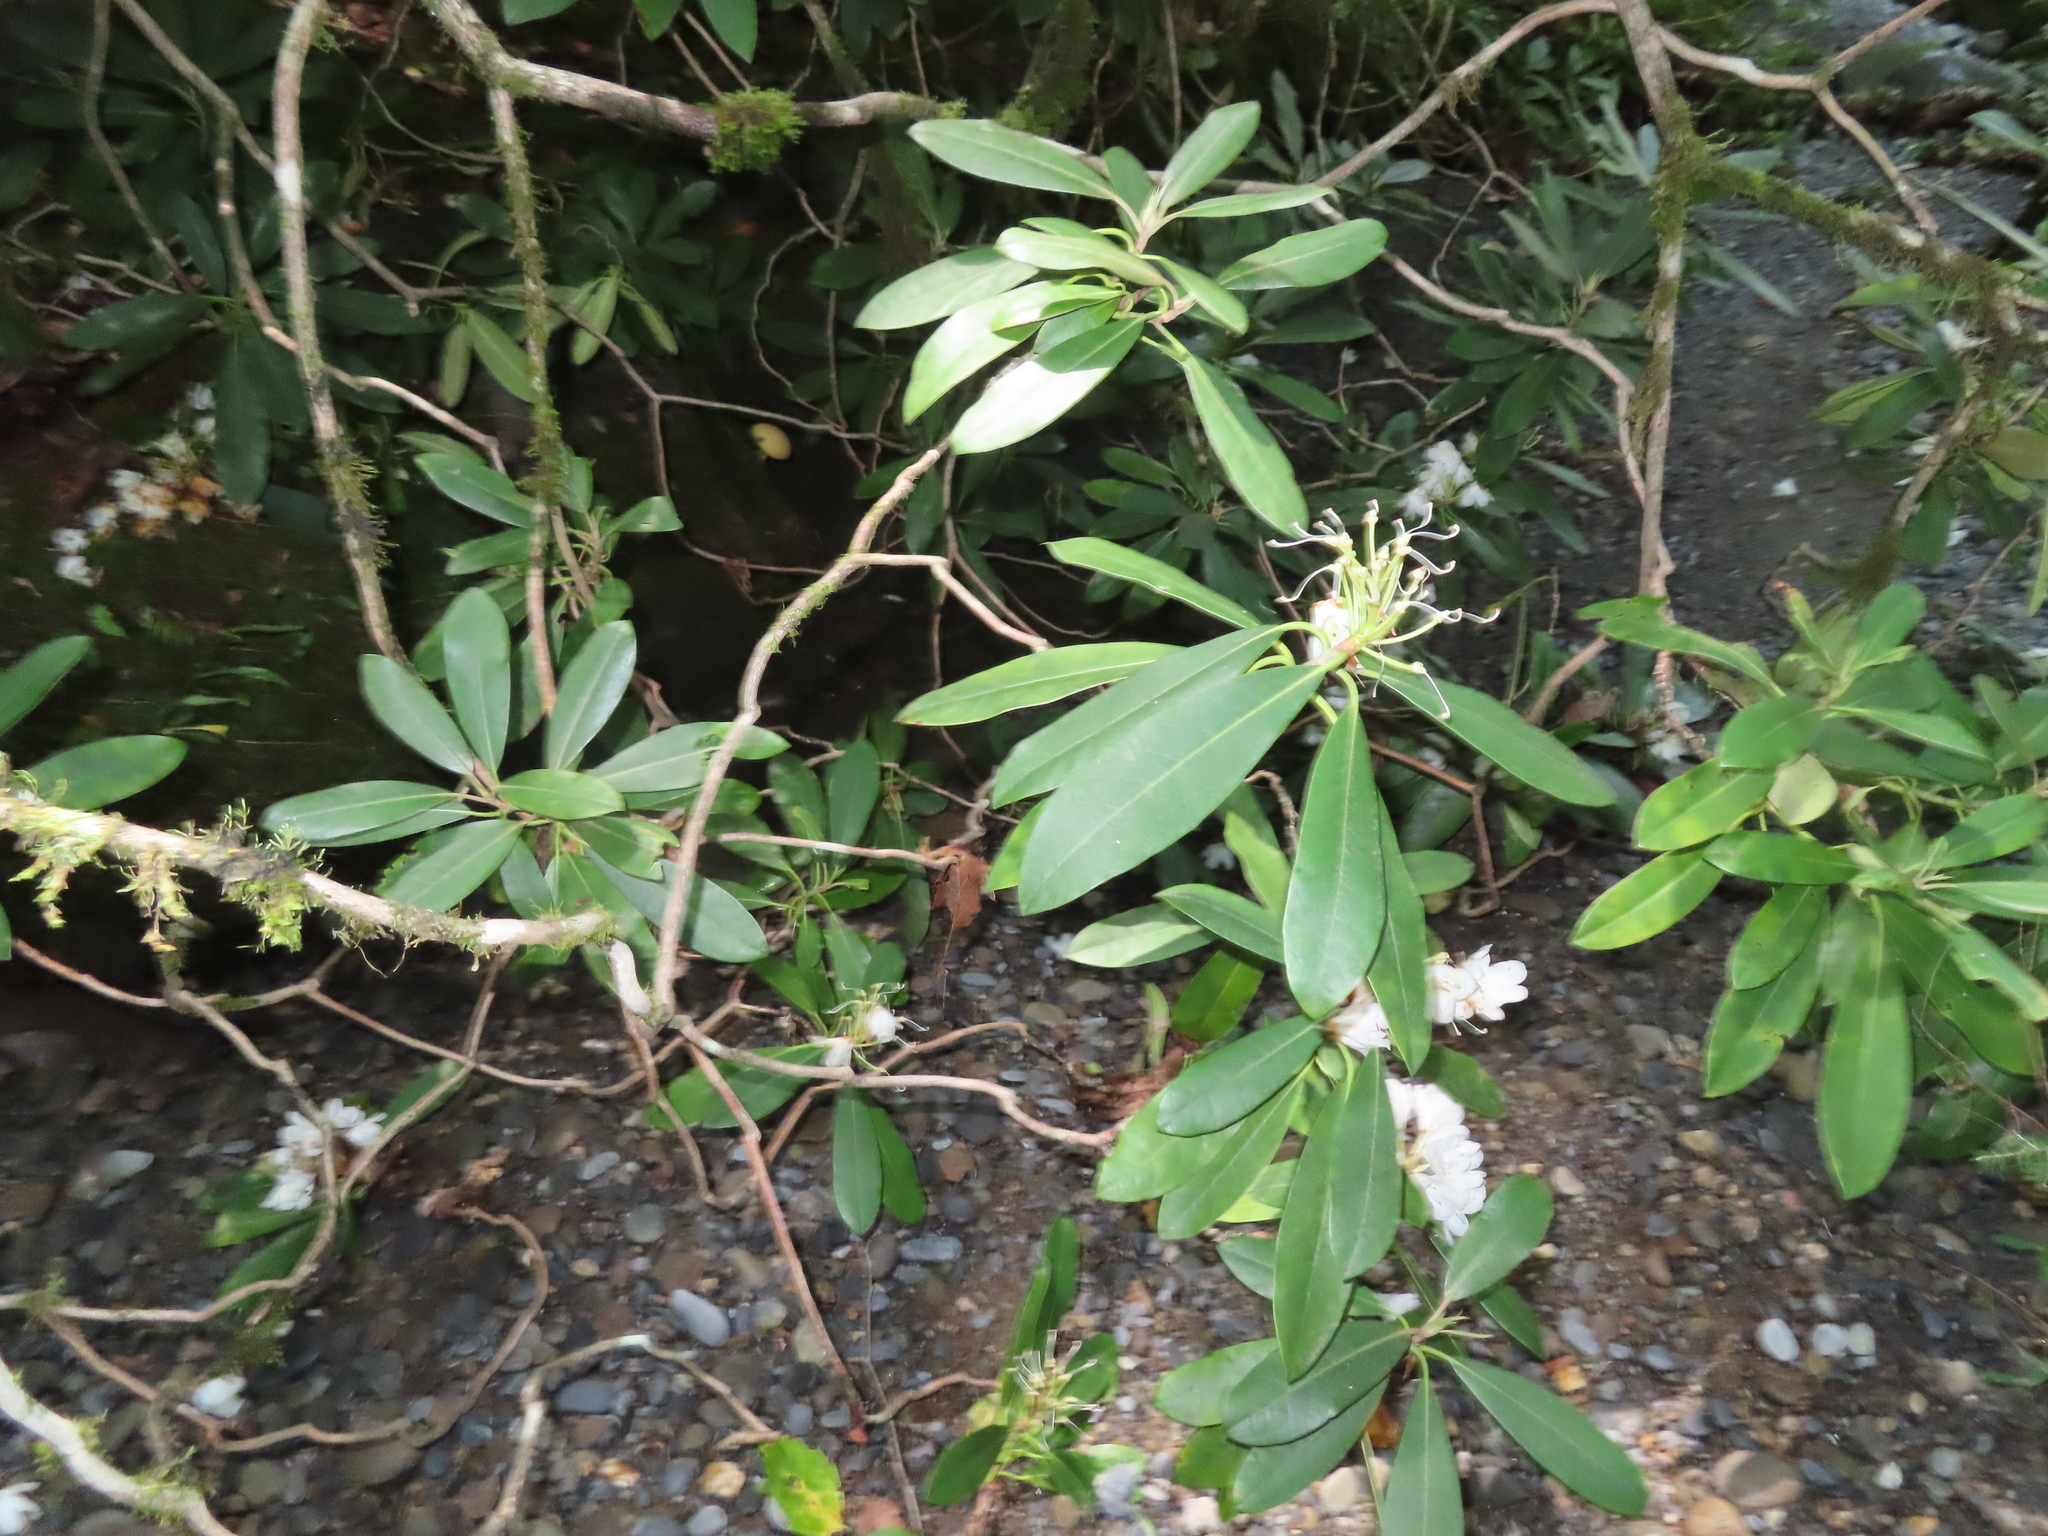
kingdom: Plantae
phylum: Tracheophyta
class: Magnoliopsida
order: Ericales
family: Ericaceae
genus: Rhododendron
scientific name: Rhododendron maximum
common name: Great rhododendron
